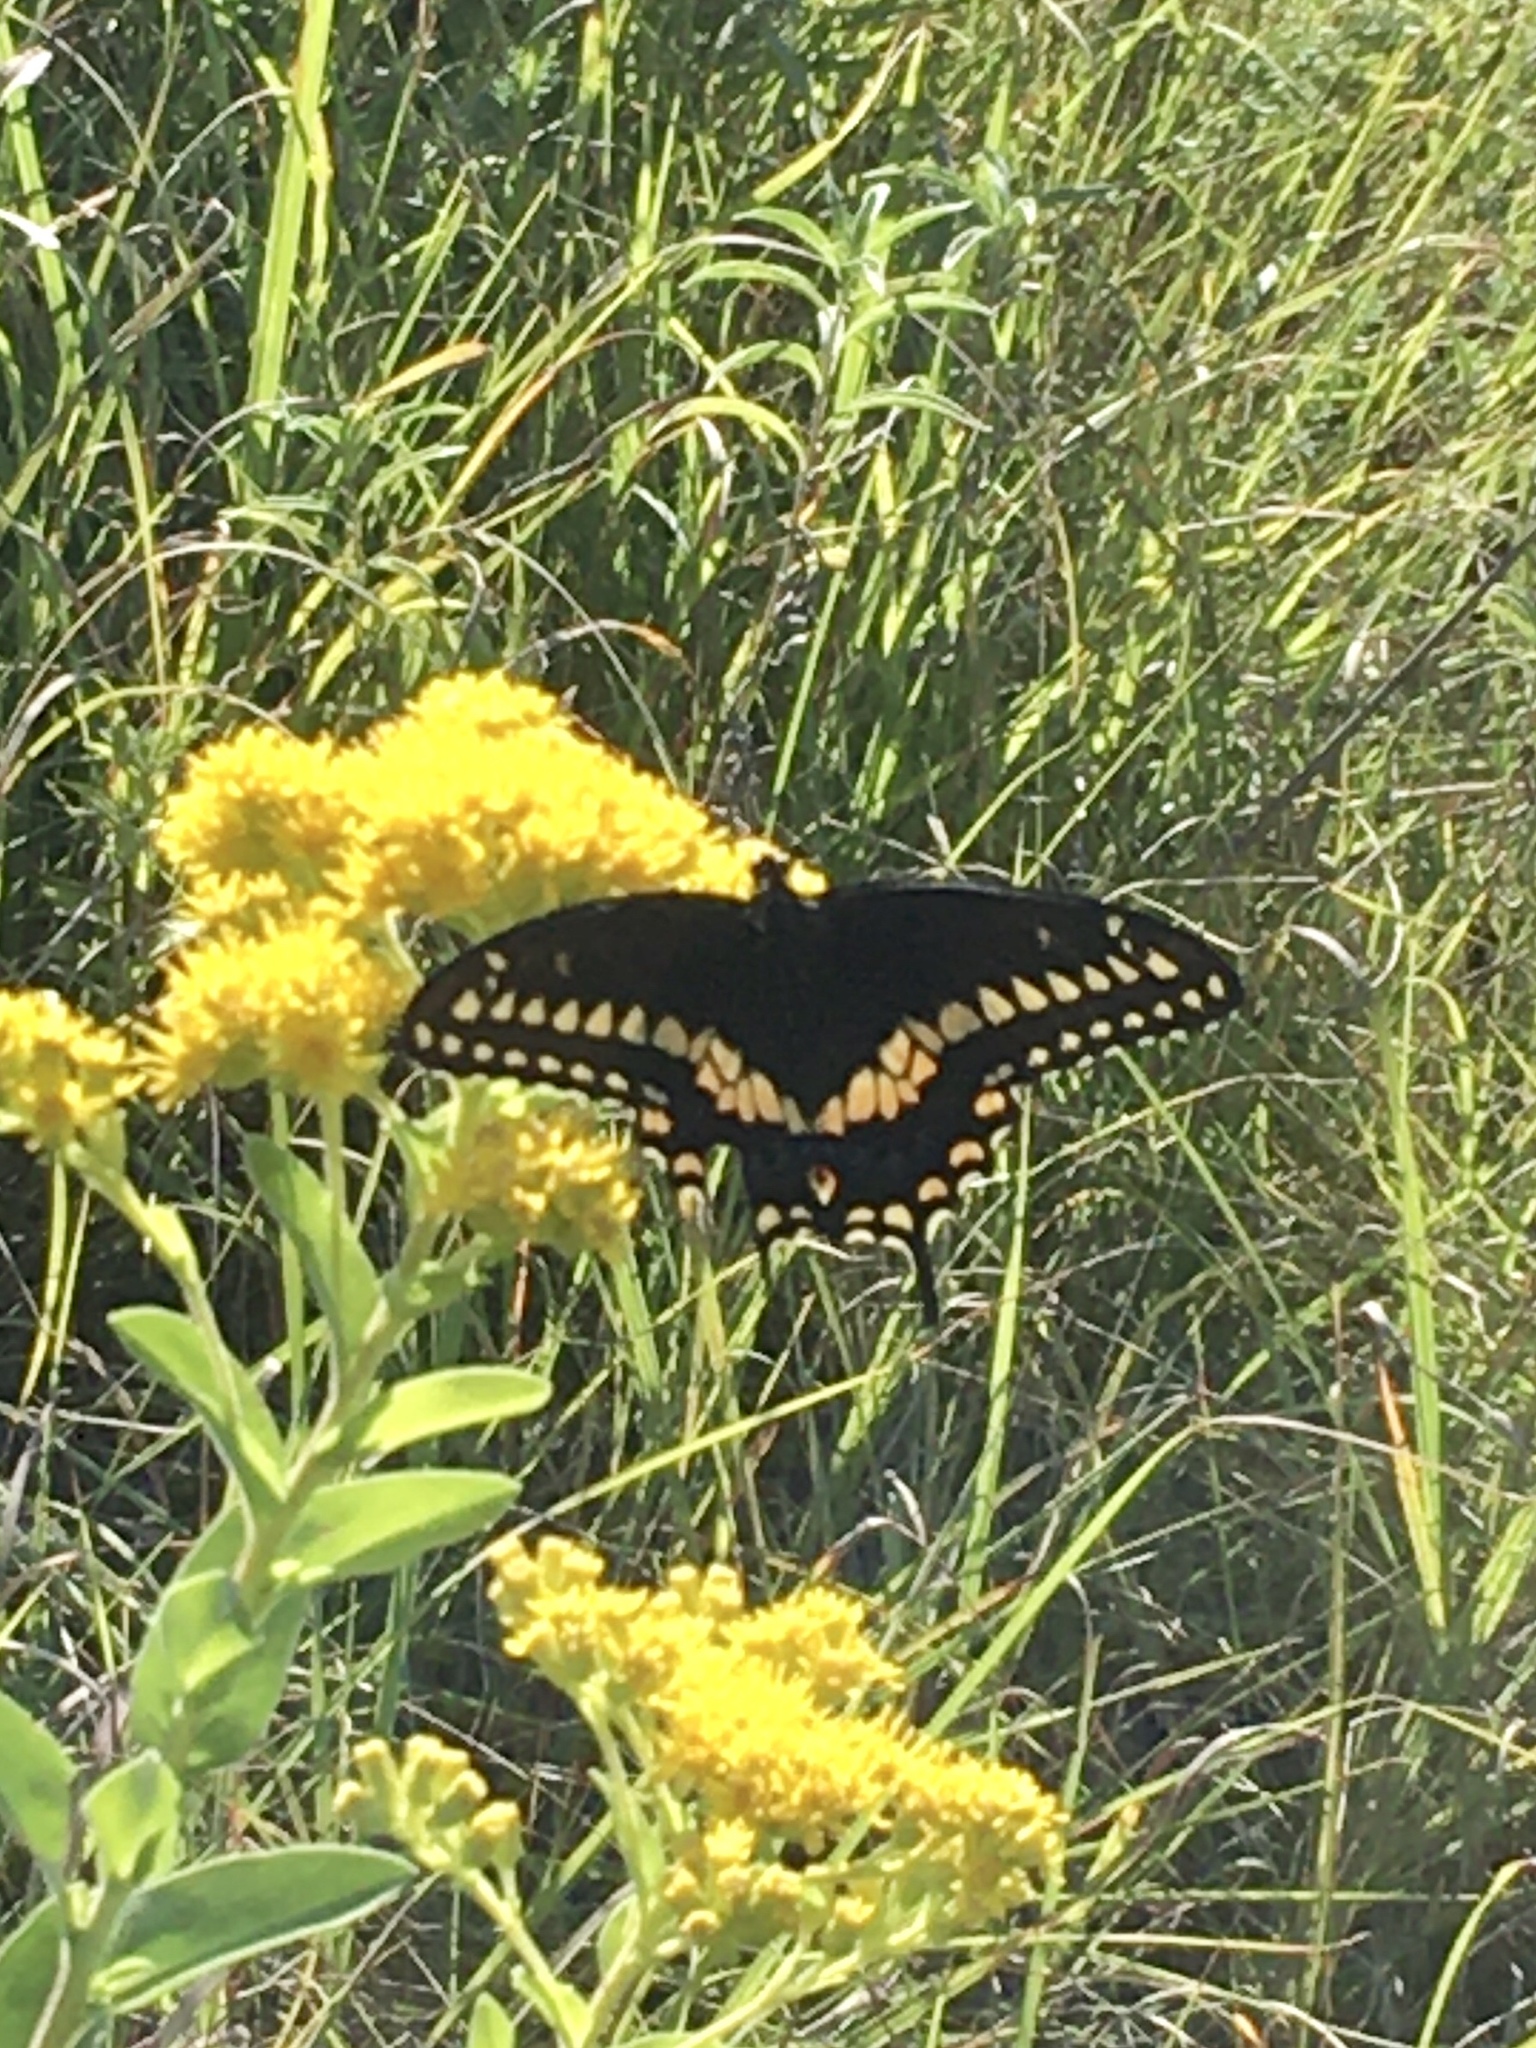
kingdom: Animalia
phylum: Arthropoda
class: Insecta
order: Lepidoptera
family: Papilionidae
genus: Papilio
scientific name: Papilio polyxenes
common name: Black swallowtail
